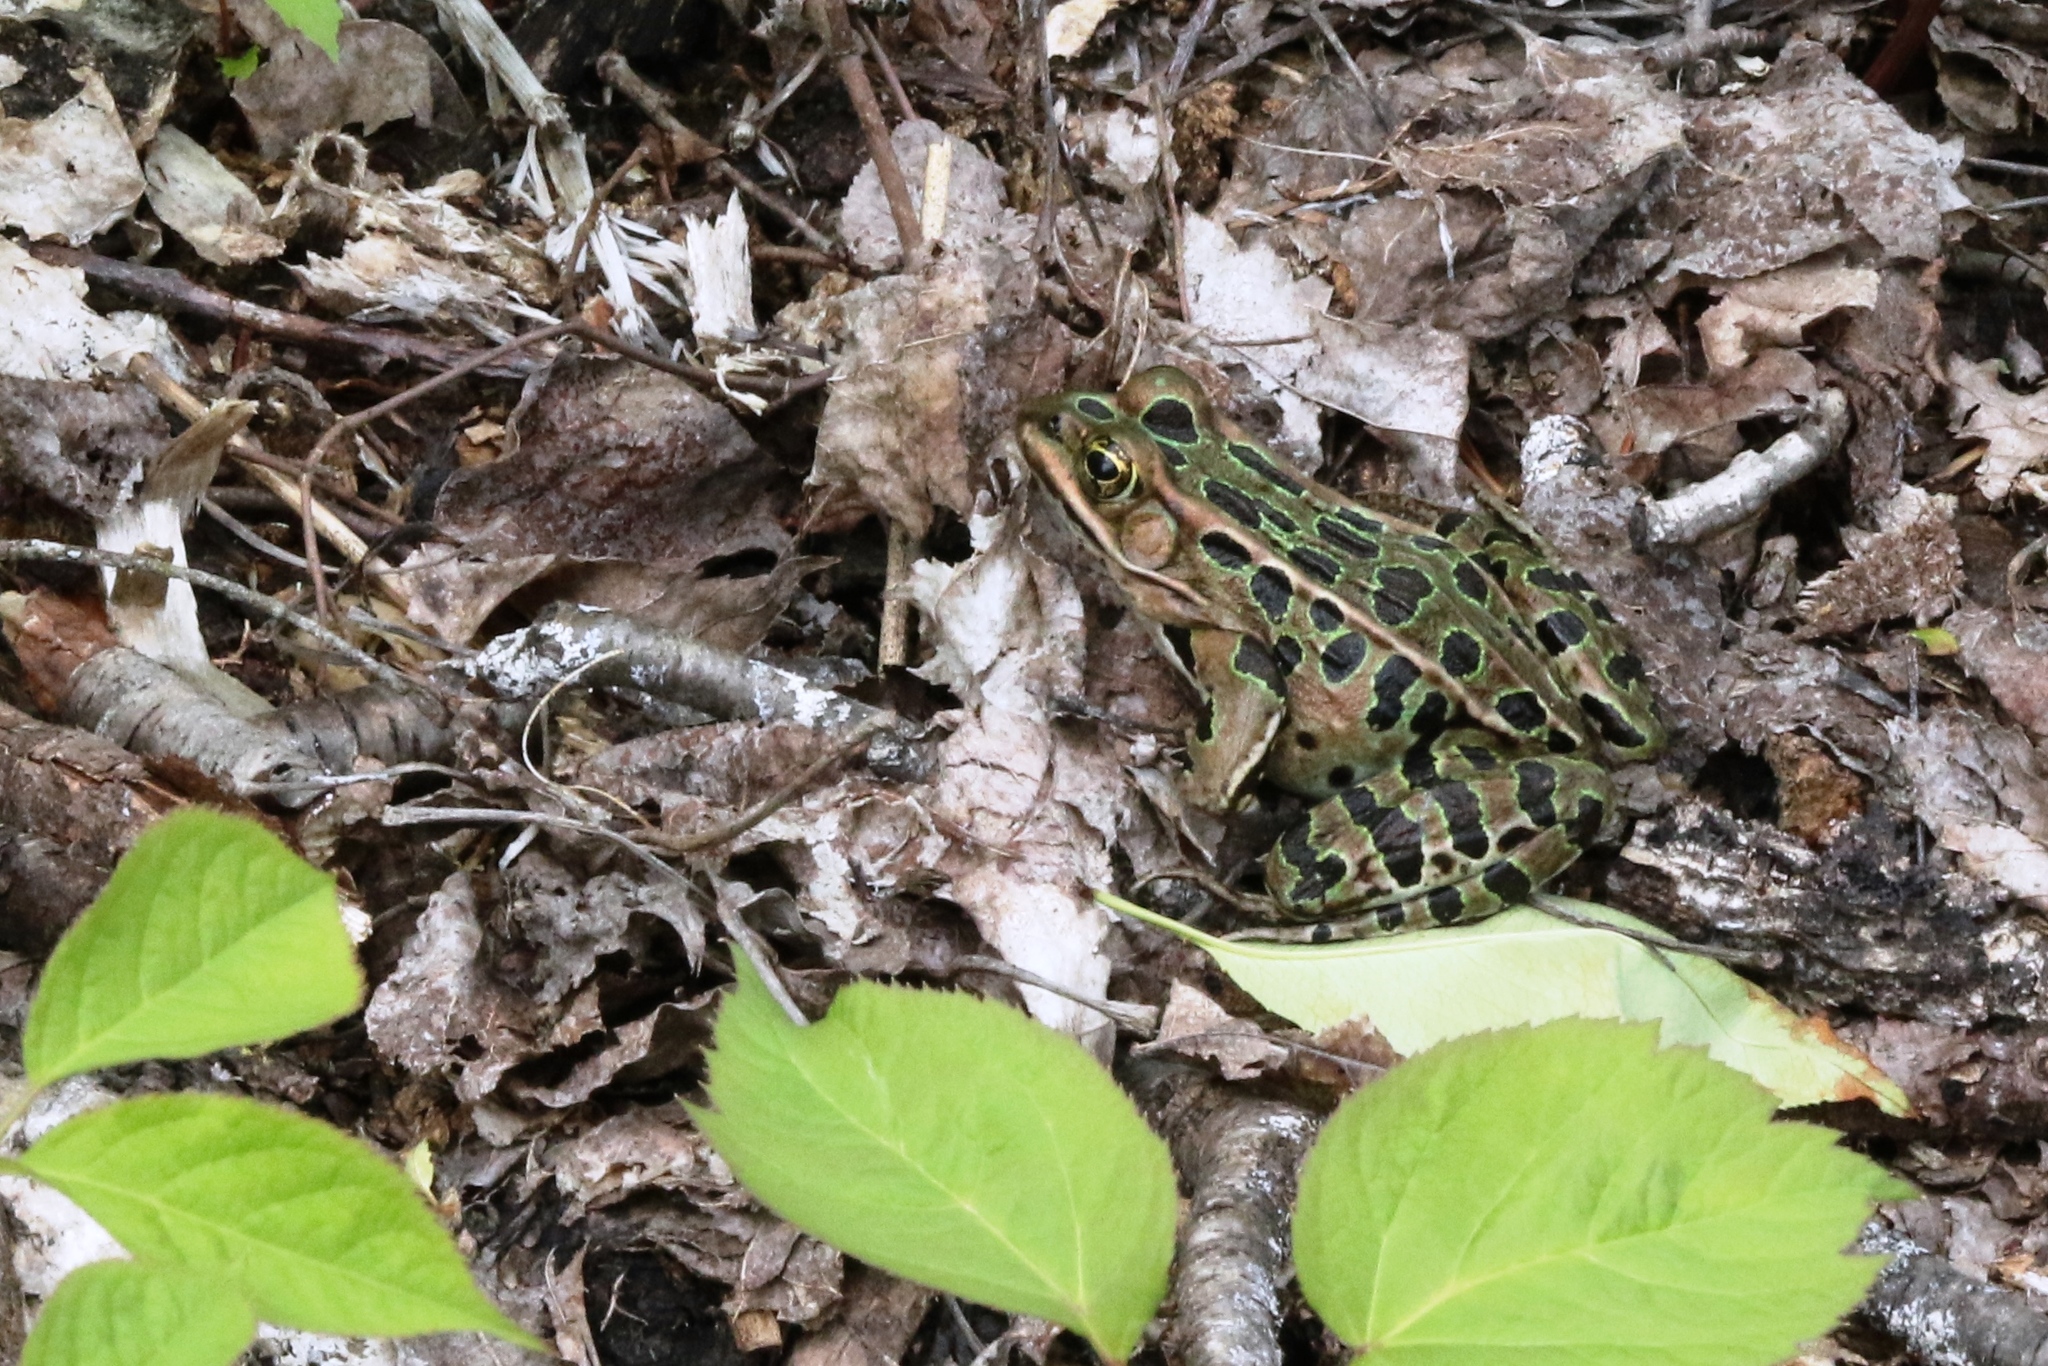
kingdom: Animalia
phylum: Chordata
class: Amphibia
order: Anura
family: Ranidae
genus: Lithobates
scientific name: Lithobates pipiens
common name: Northern leopard frog
